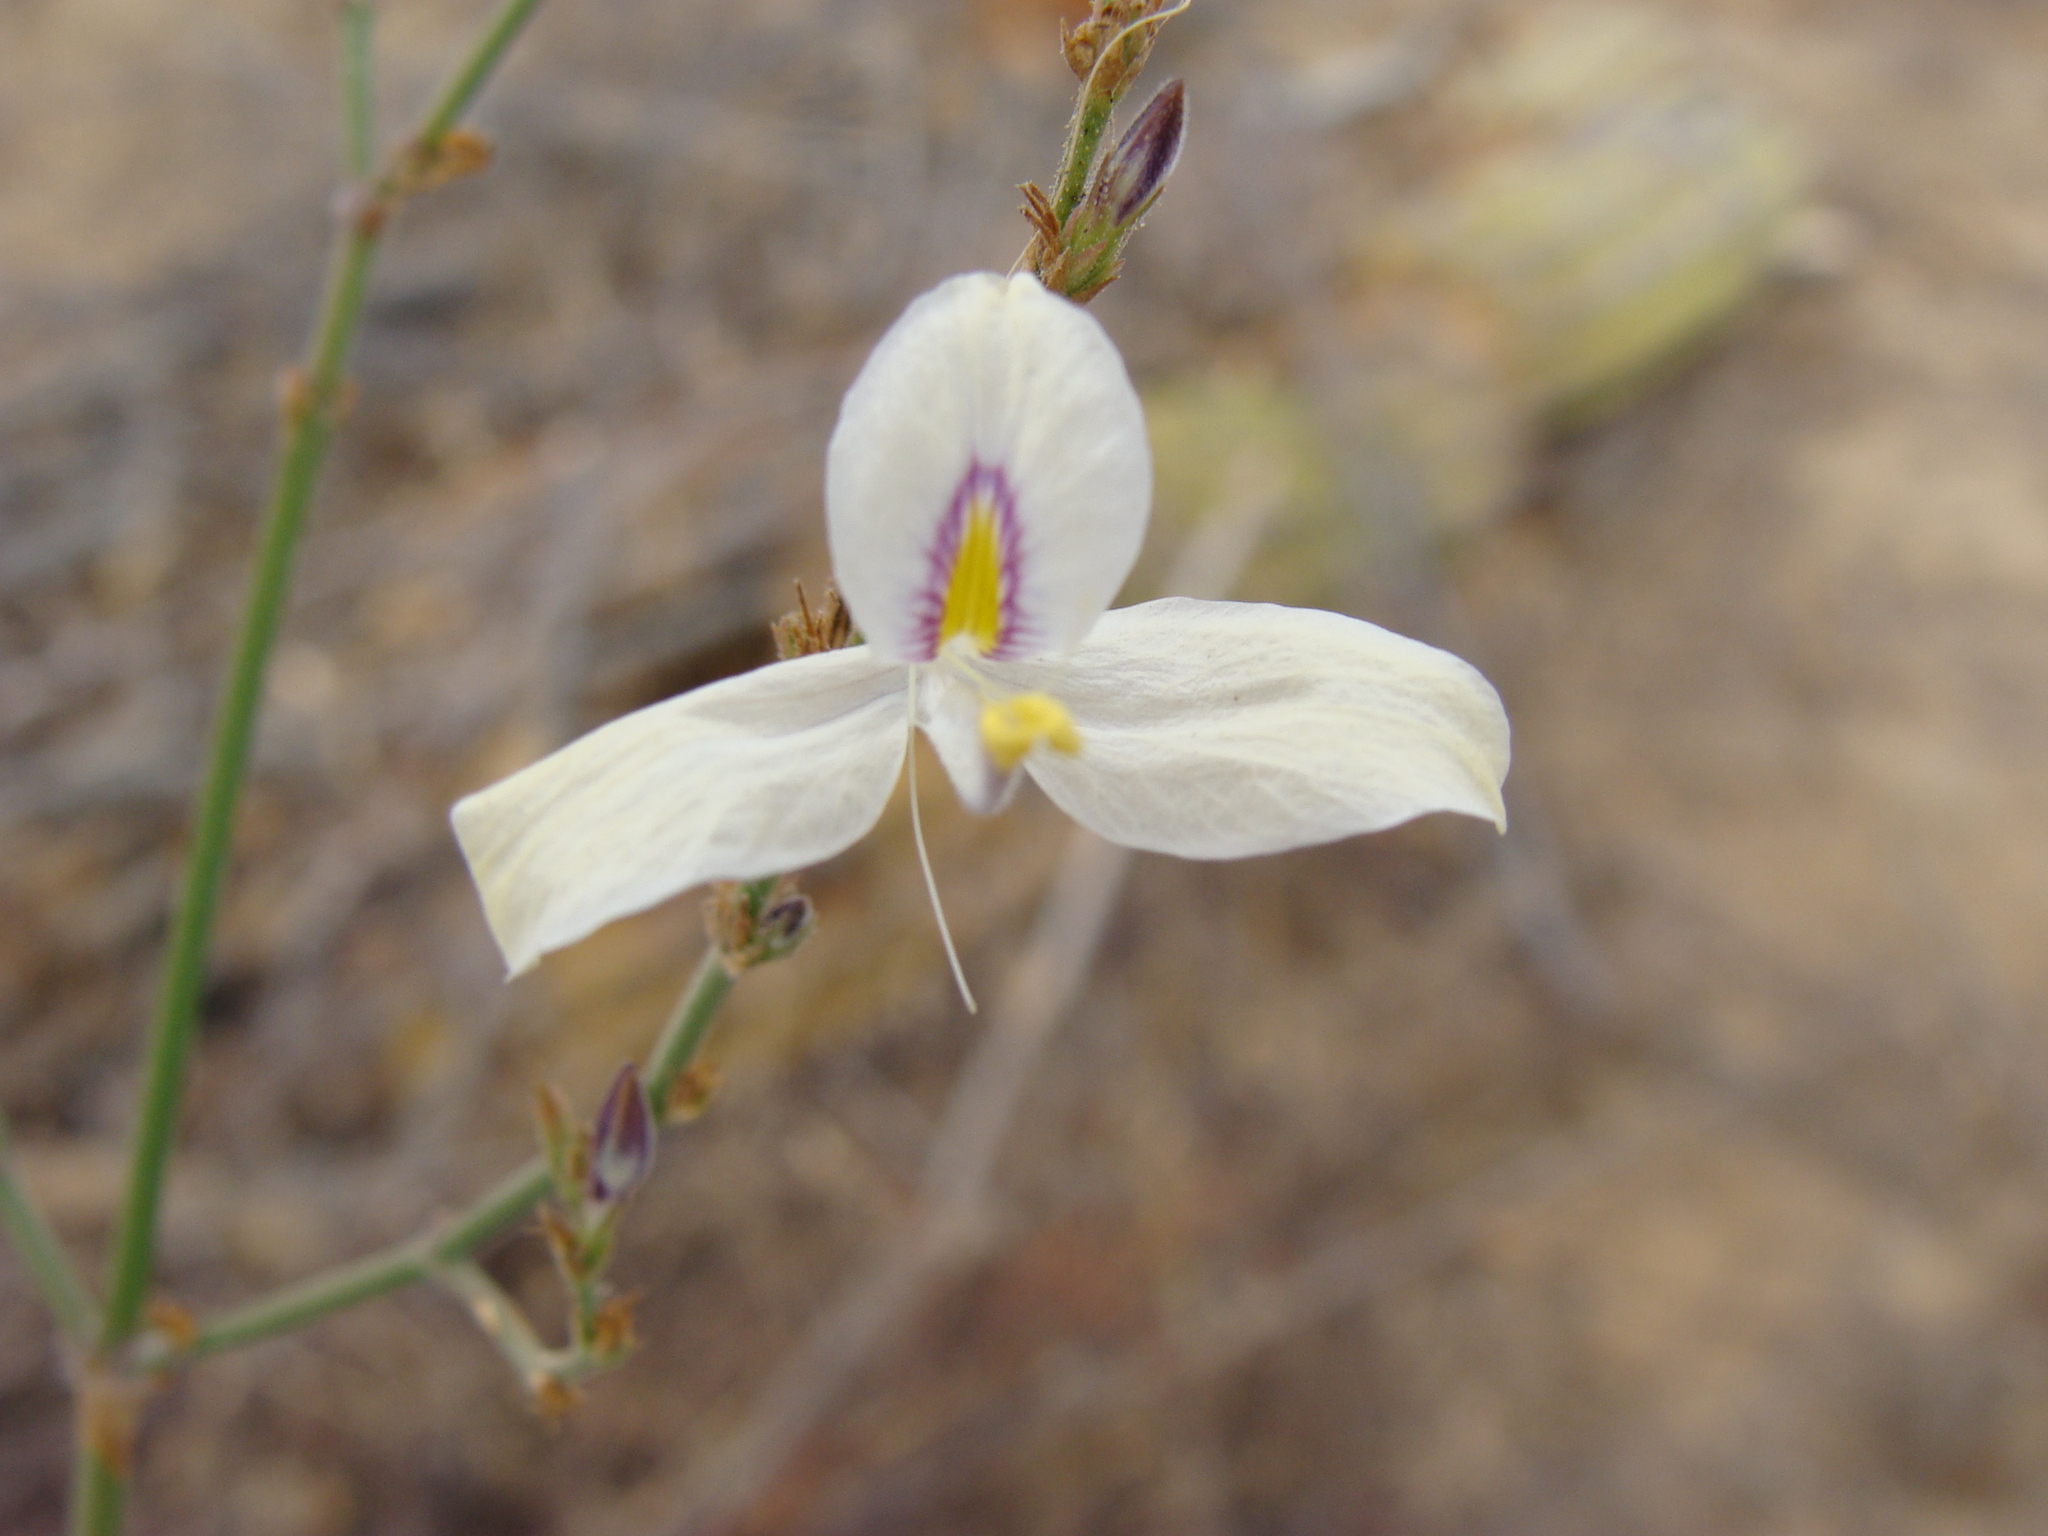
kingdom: Plantae
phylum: Tracheophyta
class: Magnoliopsida
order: Lamiales
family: Acanthaceae
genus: Carlowrightia
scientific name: Carlowrightia arizonica
